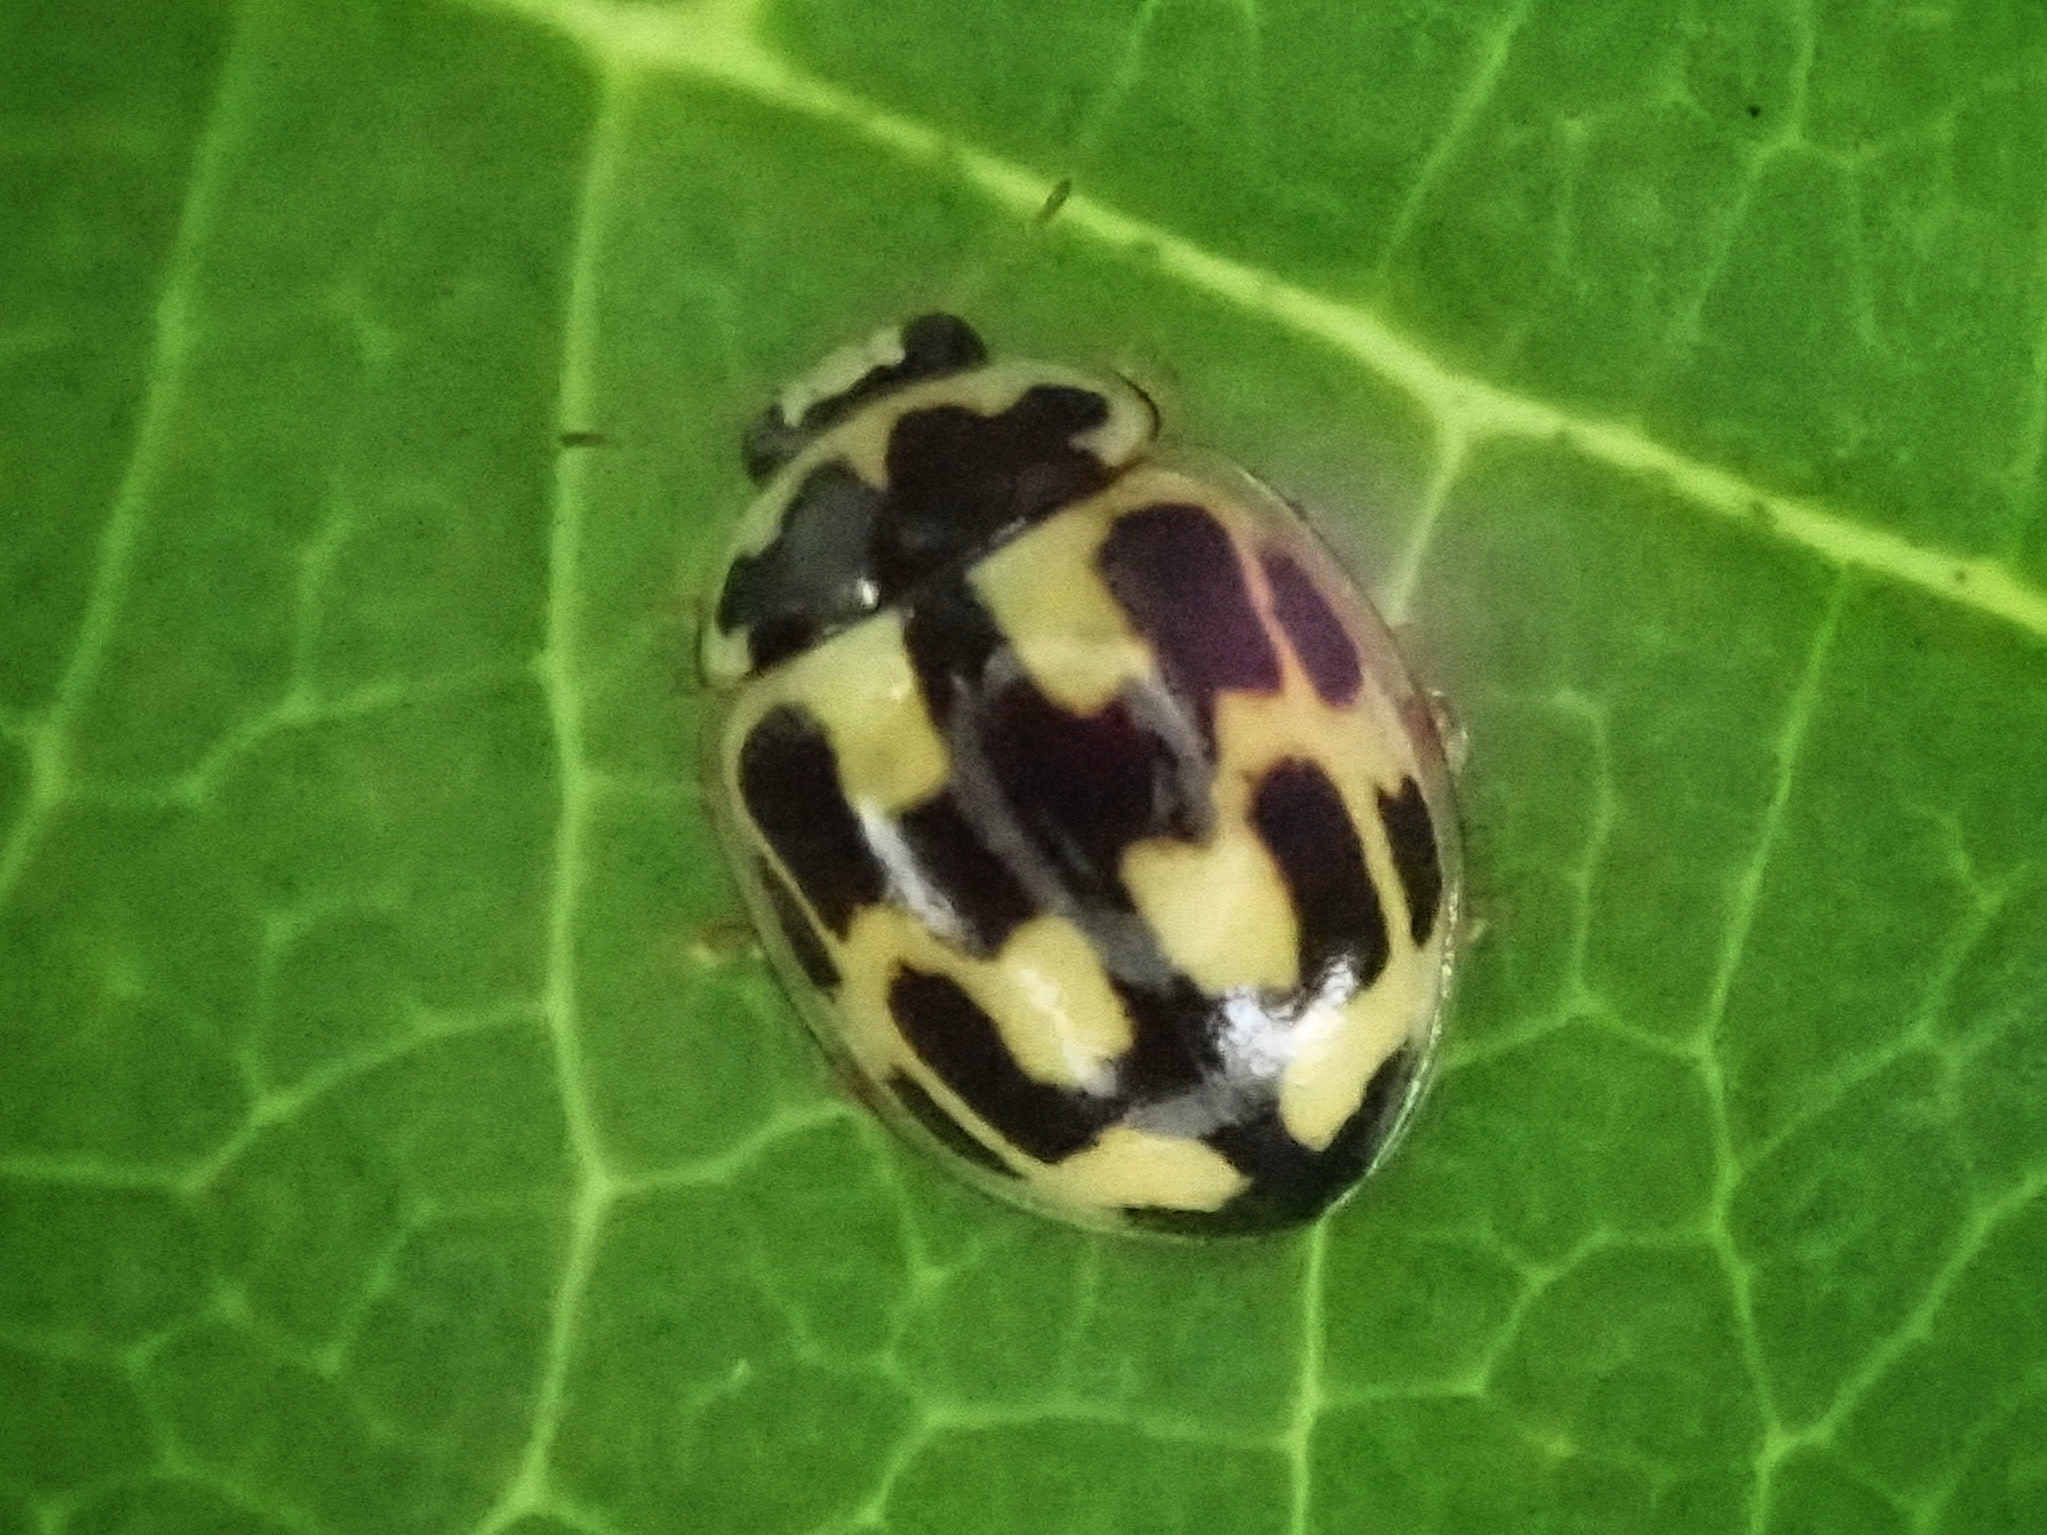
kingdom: Animalia
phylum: Arthropoda
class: Insecta
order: Coleoptera
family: Coccinellidae
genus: Propylaea
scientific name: Propylaea quatuordecimpunctata
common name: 14-spotted ladybird beetle
